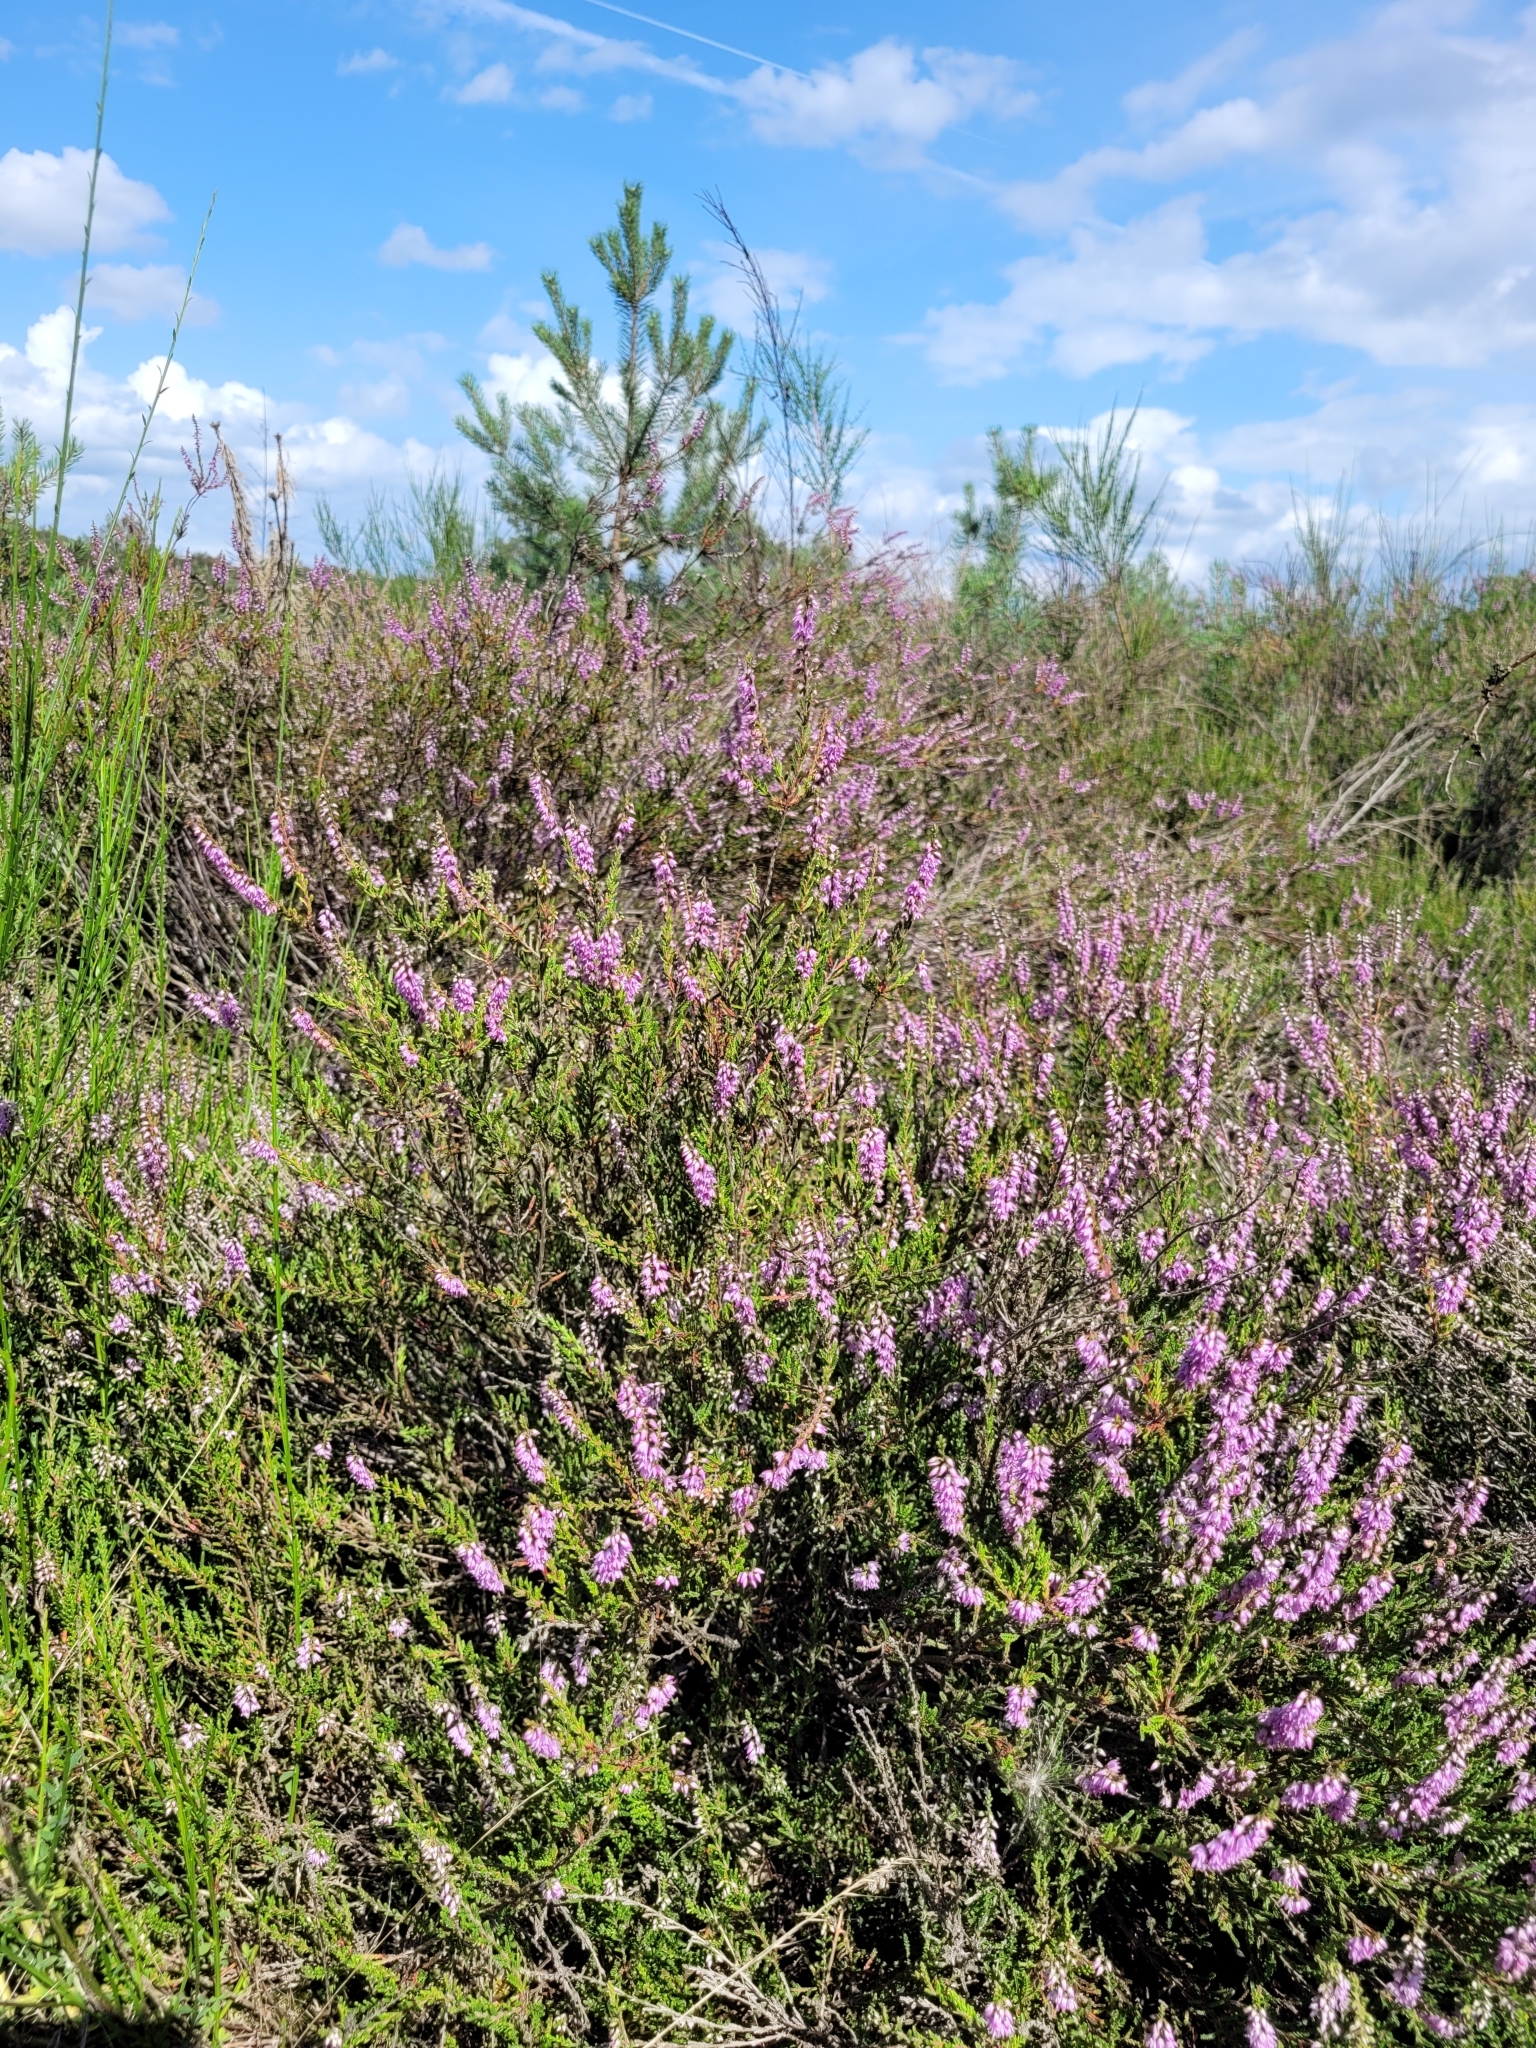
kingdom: Plantae
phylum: Tracheophyta
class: Magnoliopsida
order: Ericales
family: Ericaceae
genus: Calluna
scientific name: Calluna vulgaris
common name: Heather
